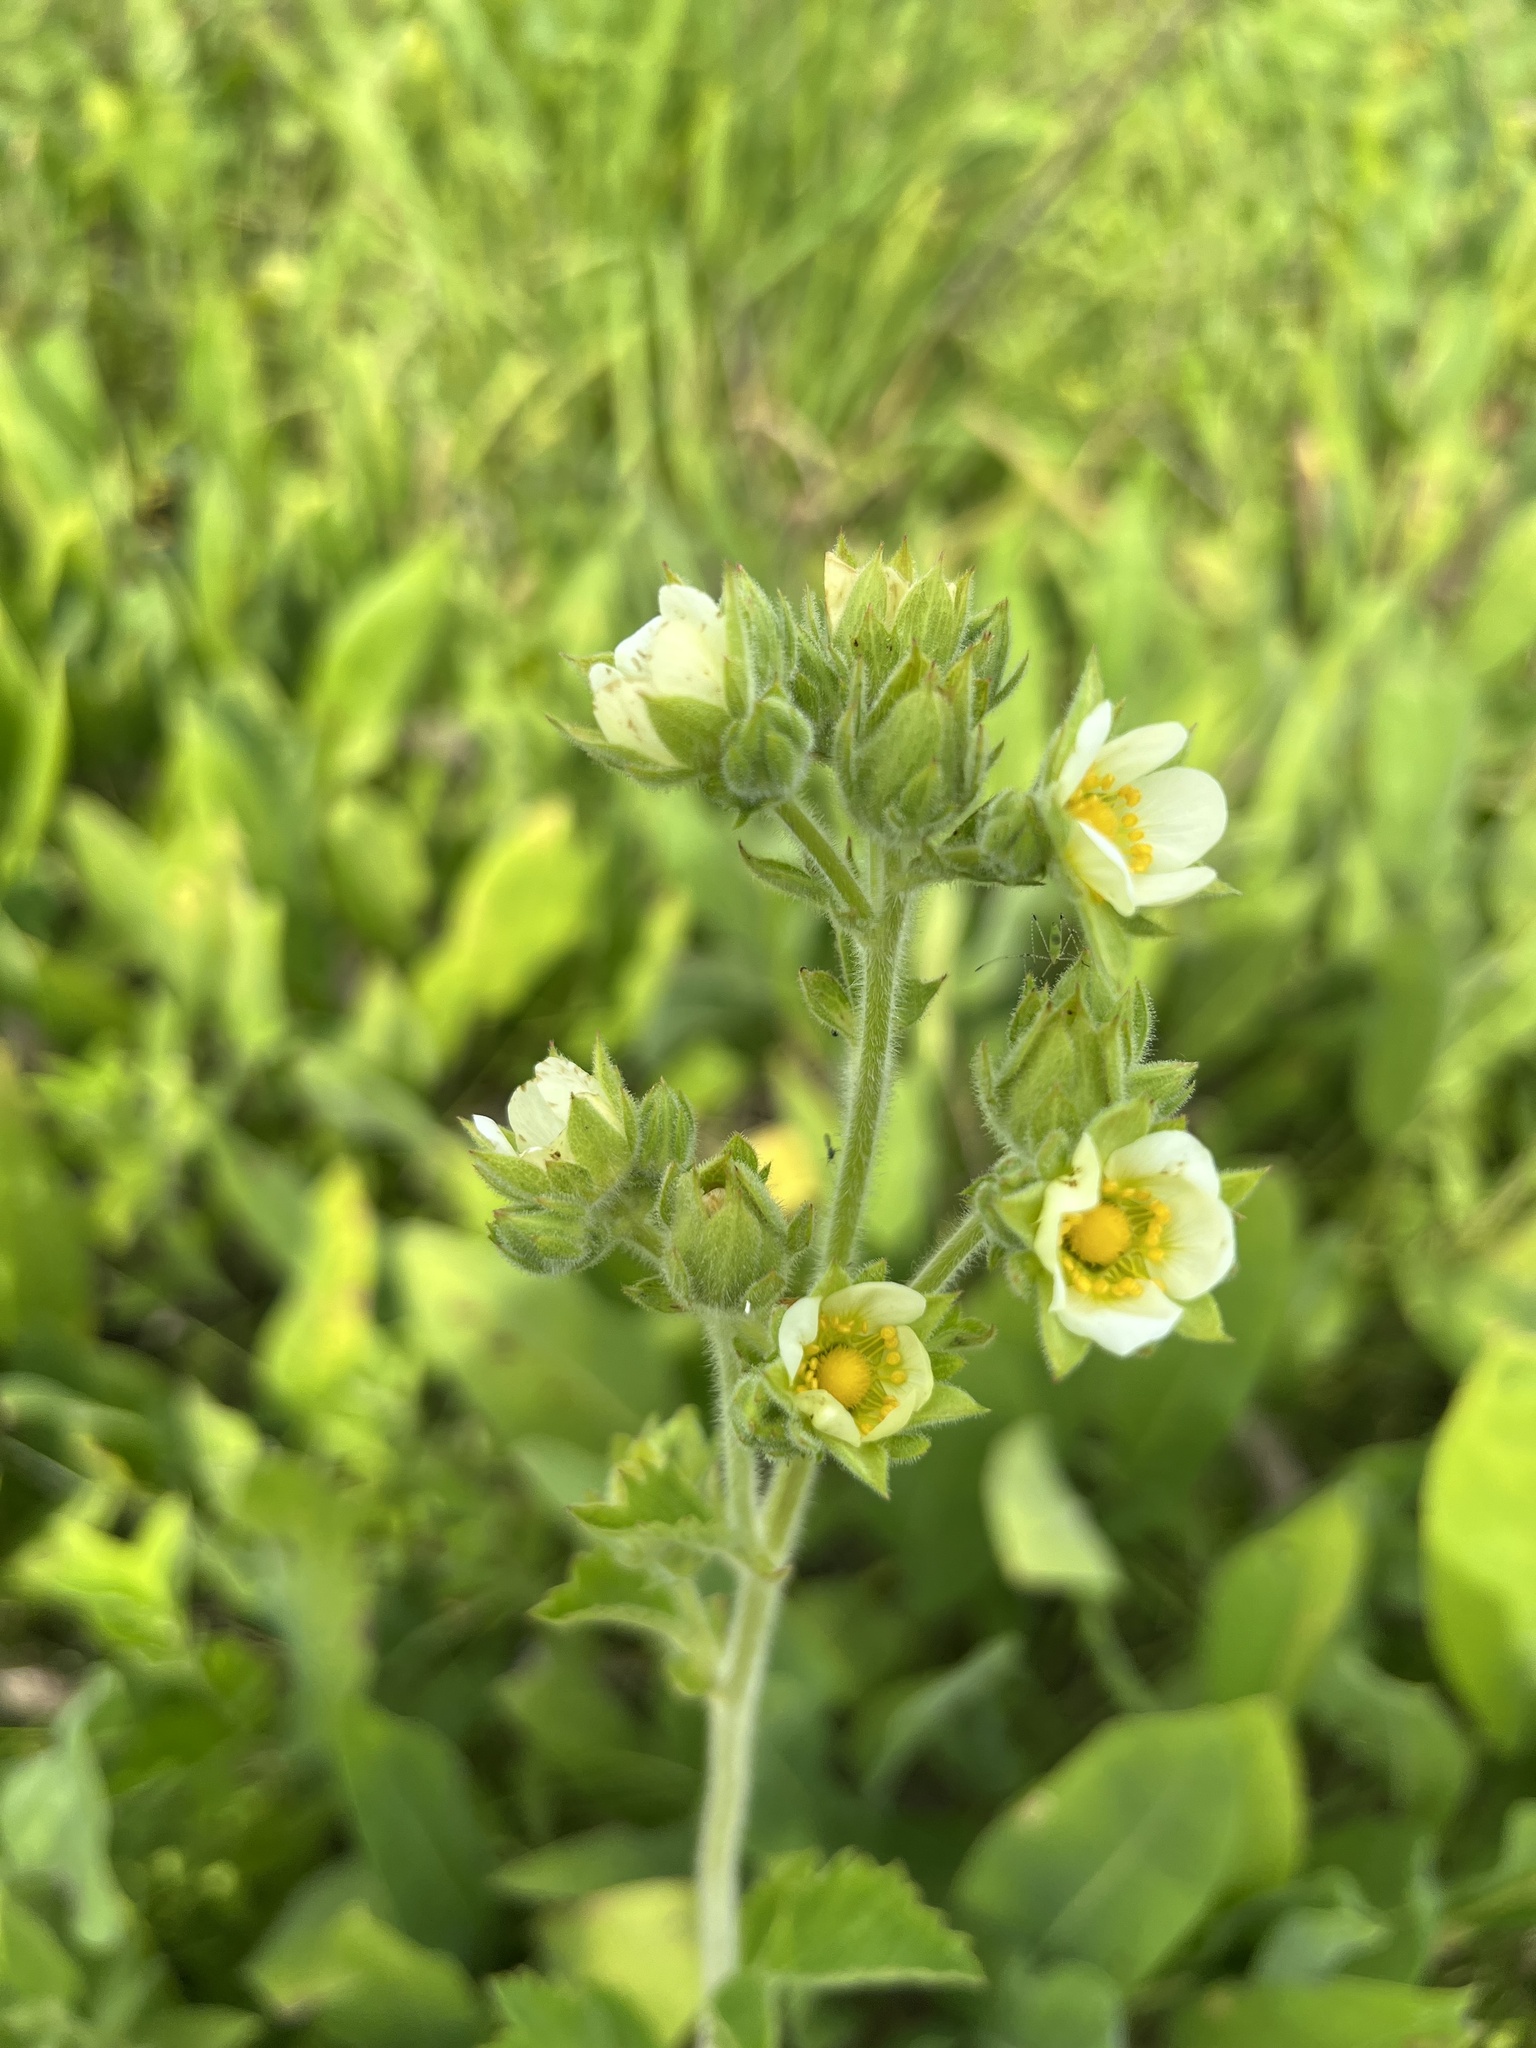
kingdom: Plantae
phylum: Tracheophyta
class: Magnoliopsida
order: Rosales
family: Rosaceae
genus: Drymocallis
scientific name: Drymocallis arguta
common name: Tall cinquefoil
